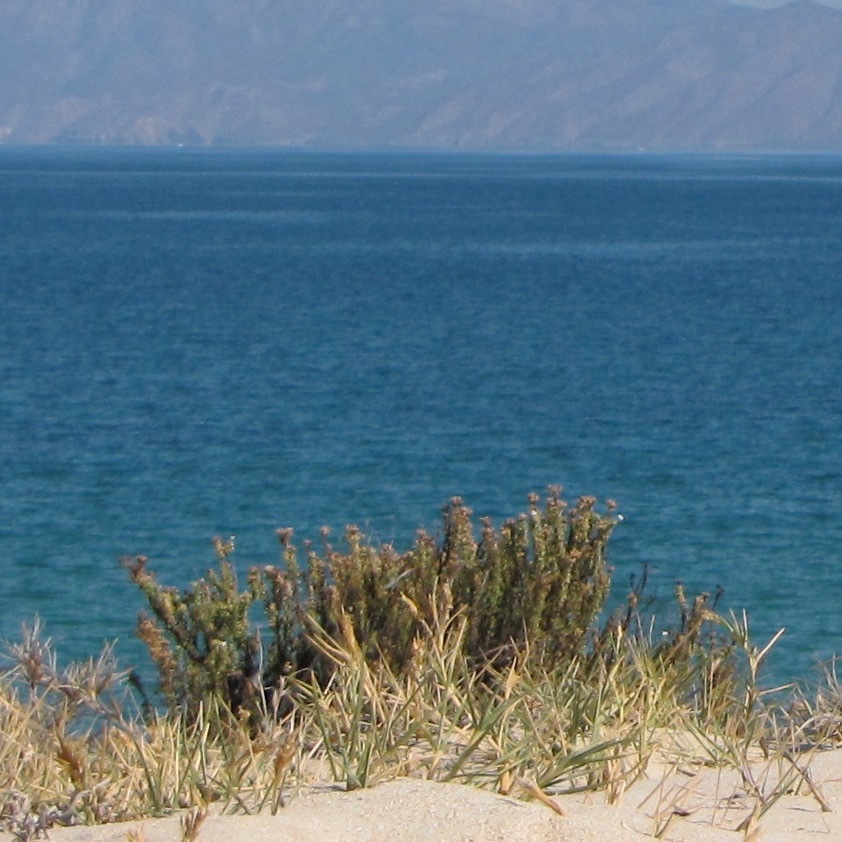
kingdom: Plantae
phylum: Tracheophyta
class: Magnoliopsida
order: Gentianales
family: Rubiaceae
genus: Stenotis
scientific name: Stenotis mucronata
